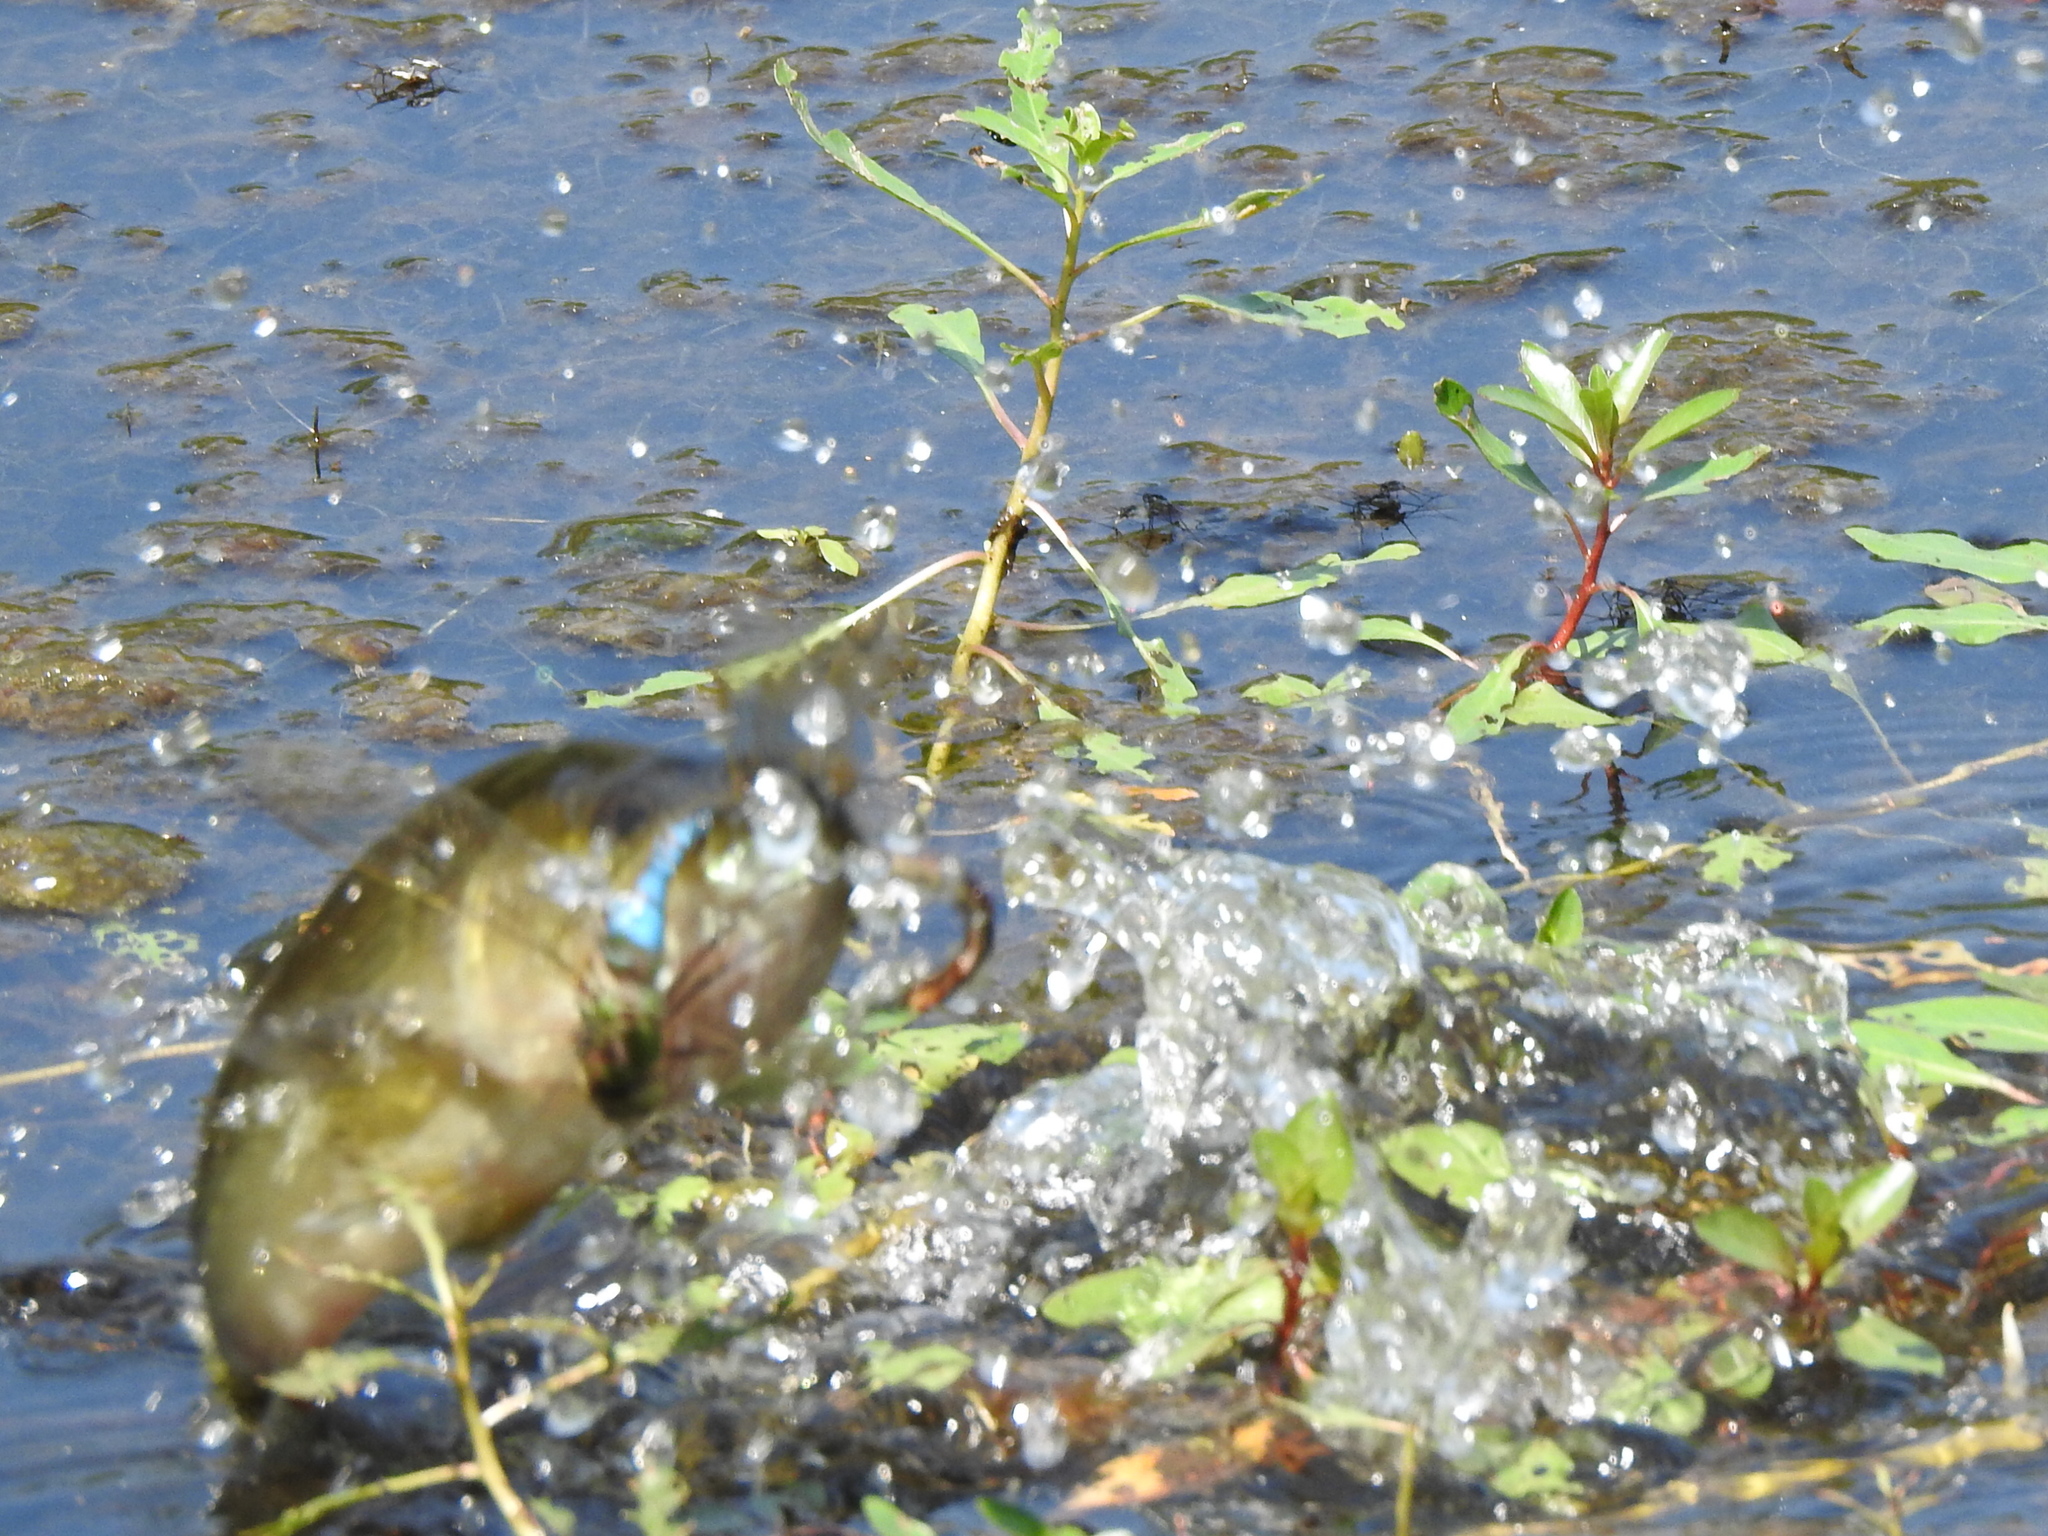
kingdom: Animalia
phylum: Chordata
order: Perciformes
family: Centrarchidae
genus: Micropterus
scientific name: Micropterus
